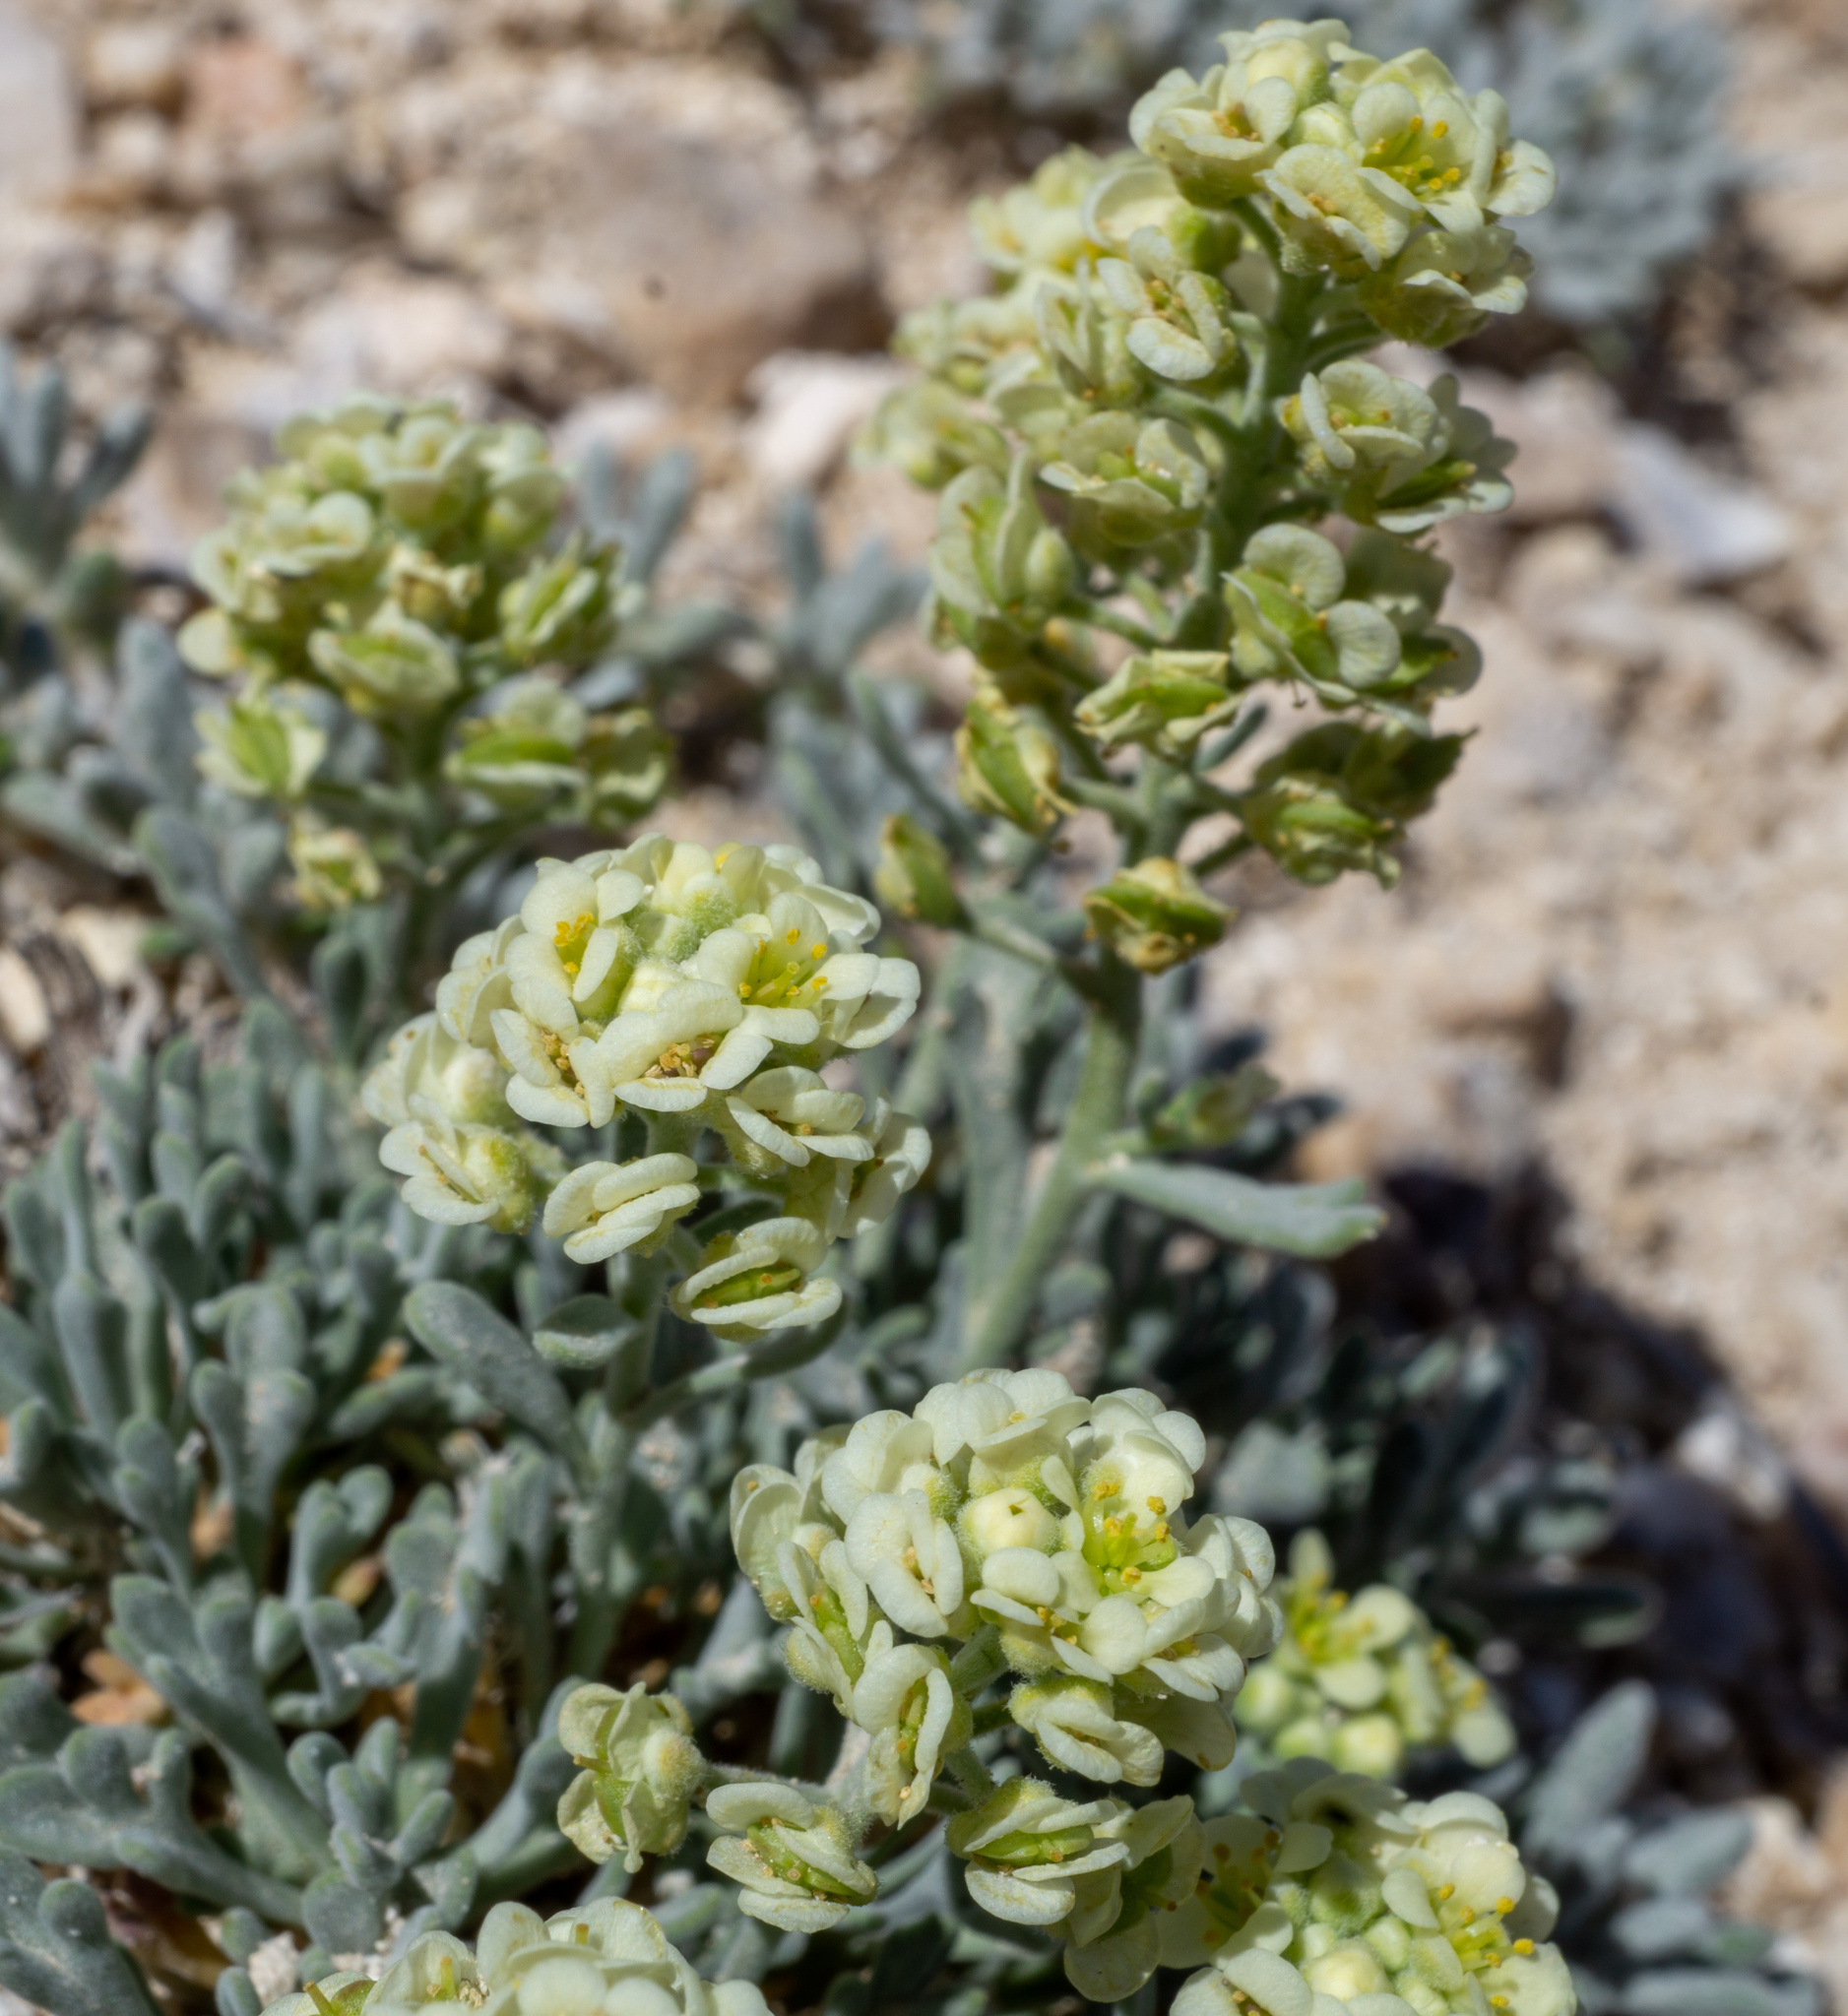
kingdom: Plantae
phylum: Tracheophyta
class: Magnoliopsida
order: Brassicales
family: Brassicaceae
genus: Lepidium
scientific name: Lepidium ostleri
